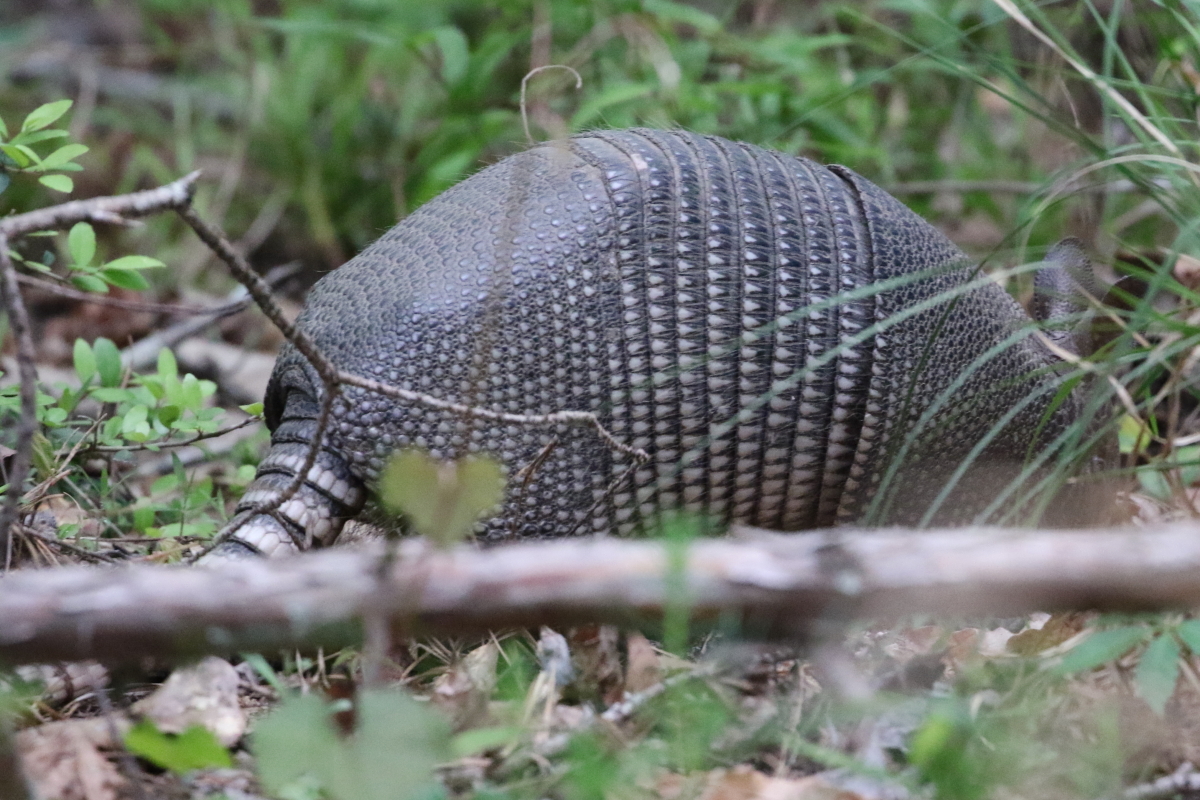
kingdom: Animalia
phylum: Chordata
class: Mammalia
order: Cingulata
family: Dasypodidae
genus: Dasypus
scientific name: Dasypus novemcinctus
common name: Nine-banded armadillo
